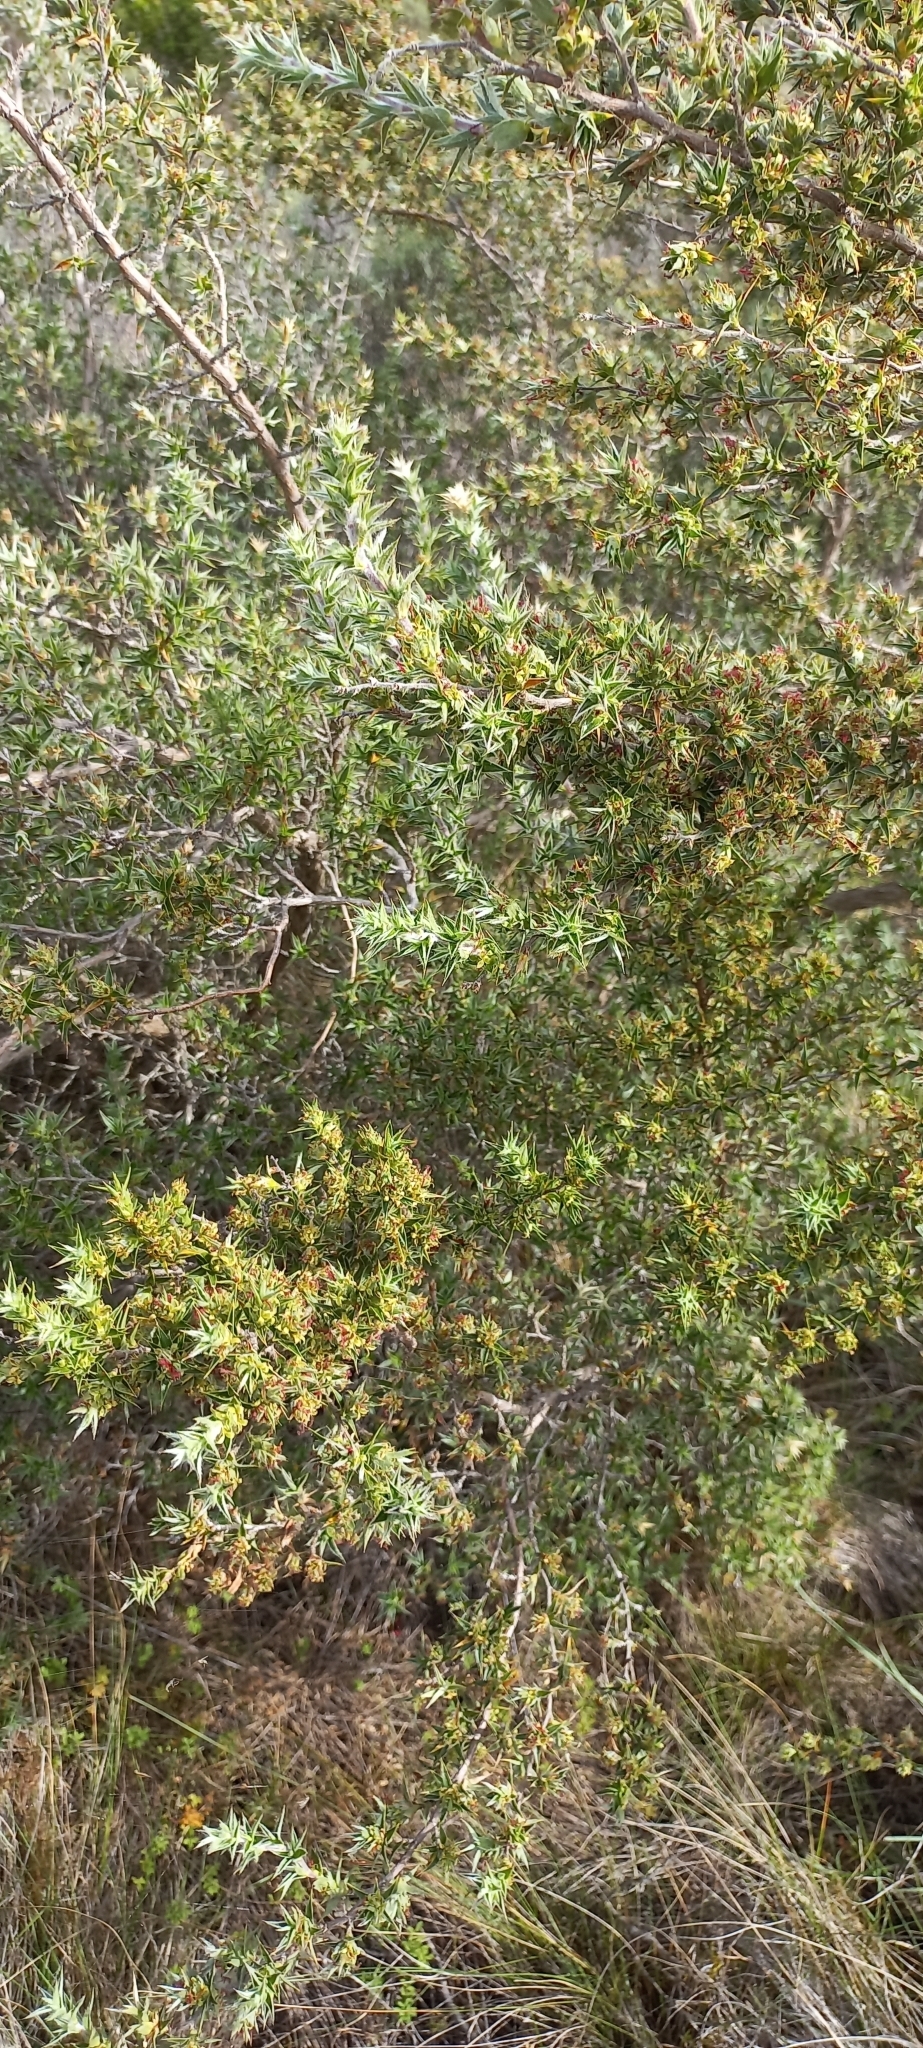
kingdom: Plantae
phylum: Tracheophyta
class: Magnoliopsida
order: Rosales
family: Rosaceae
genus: Cliffortia
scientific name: Cliffortia ruscifolia
